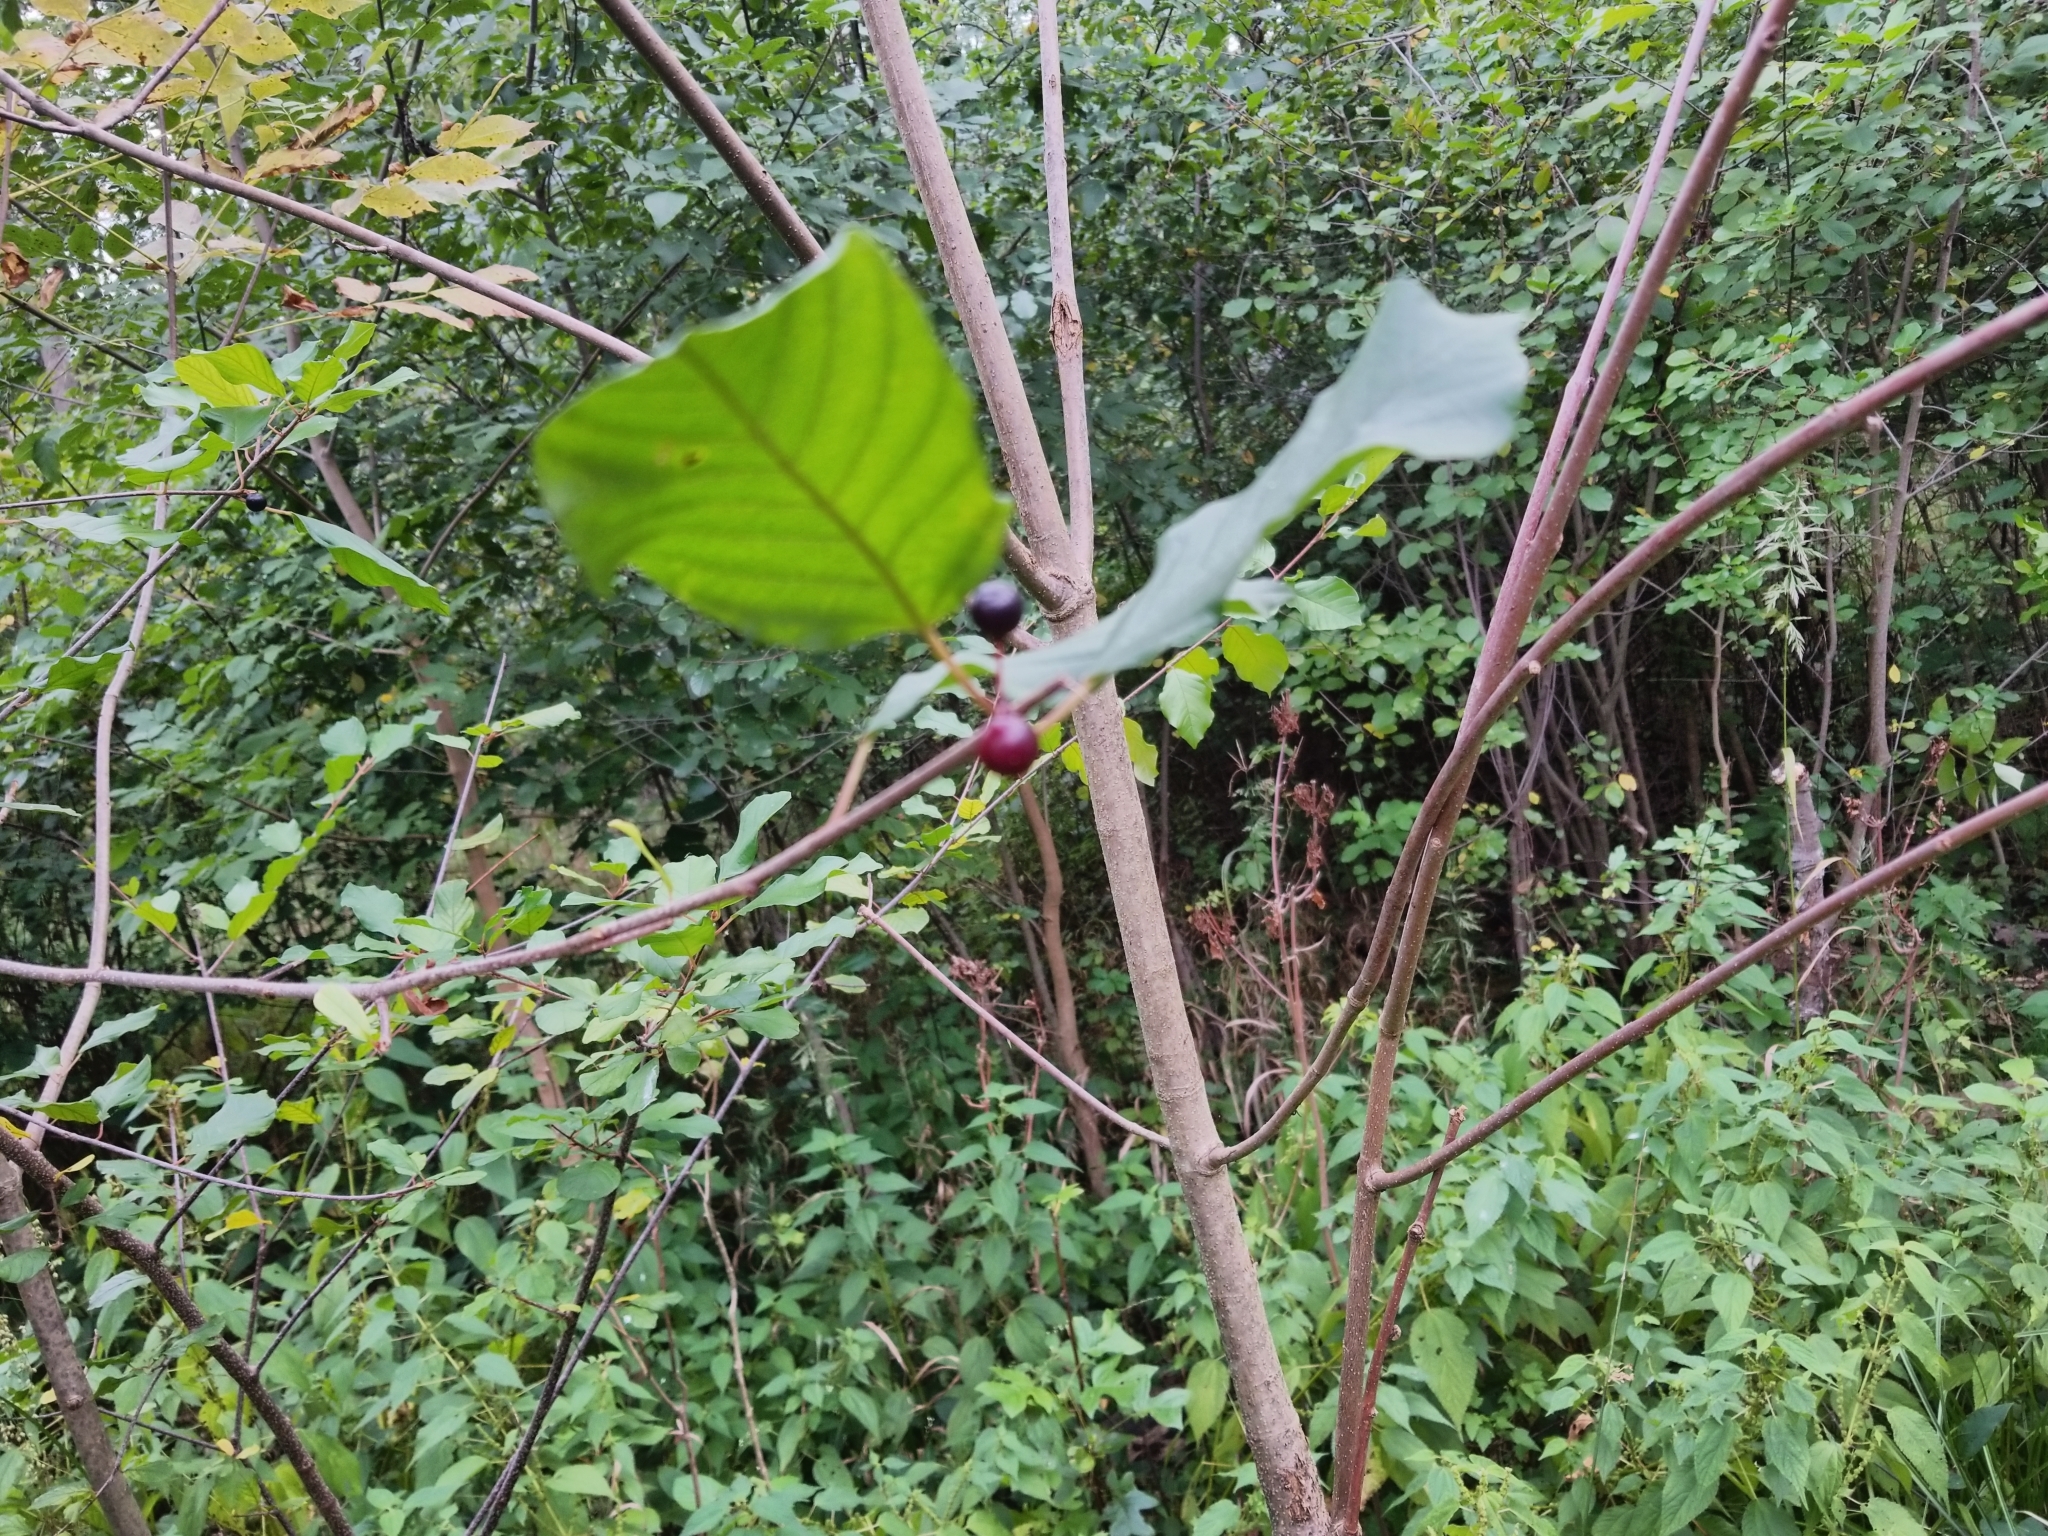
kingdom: Plantae
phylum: Tracheophyta
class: Magnoliopsida
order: Rosales
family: Rhamnaceae
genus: Frangula
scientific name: Frangula alnus
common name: Alder buckthorn
